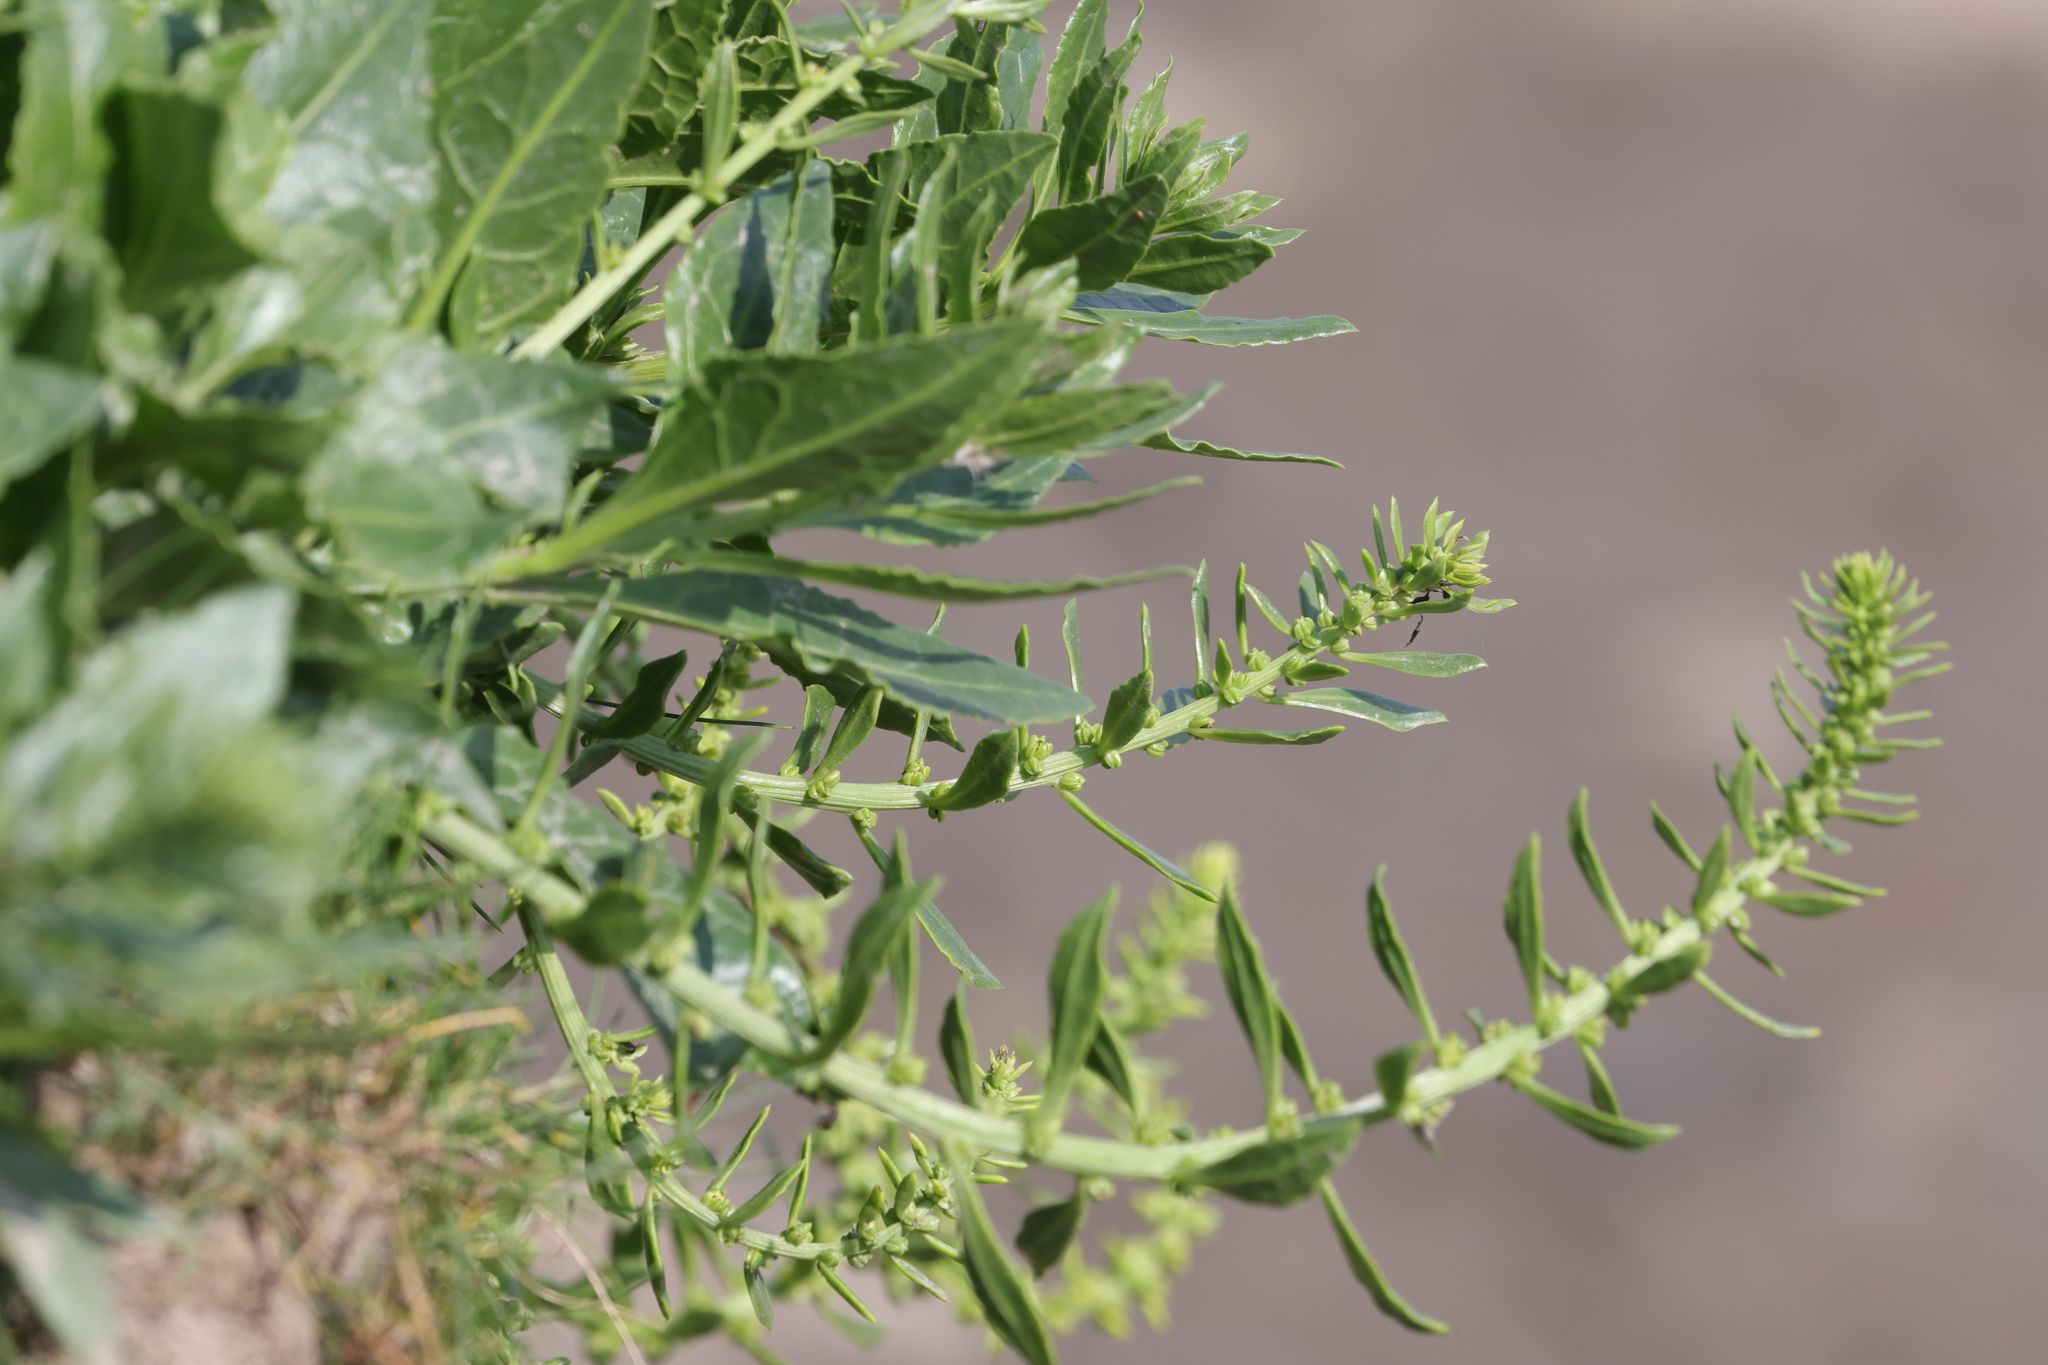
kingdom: Plantae
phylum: Tracheophyta
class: Magnoliopsida
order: Caryophyllales
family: Amaranthaceae
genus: Beta
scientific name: Beta vulgaris
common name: Beet
